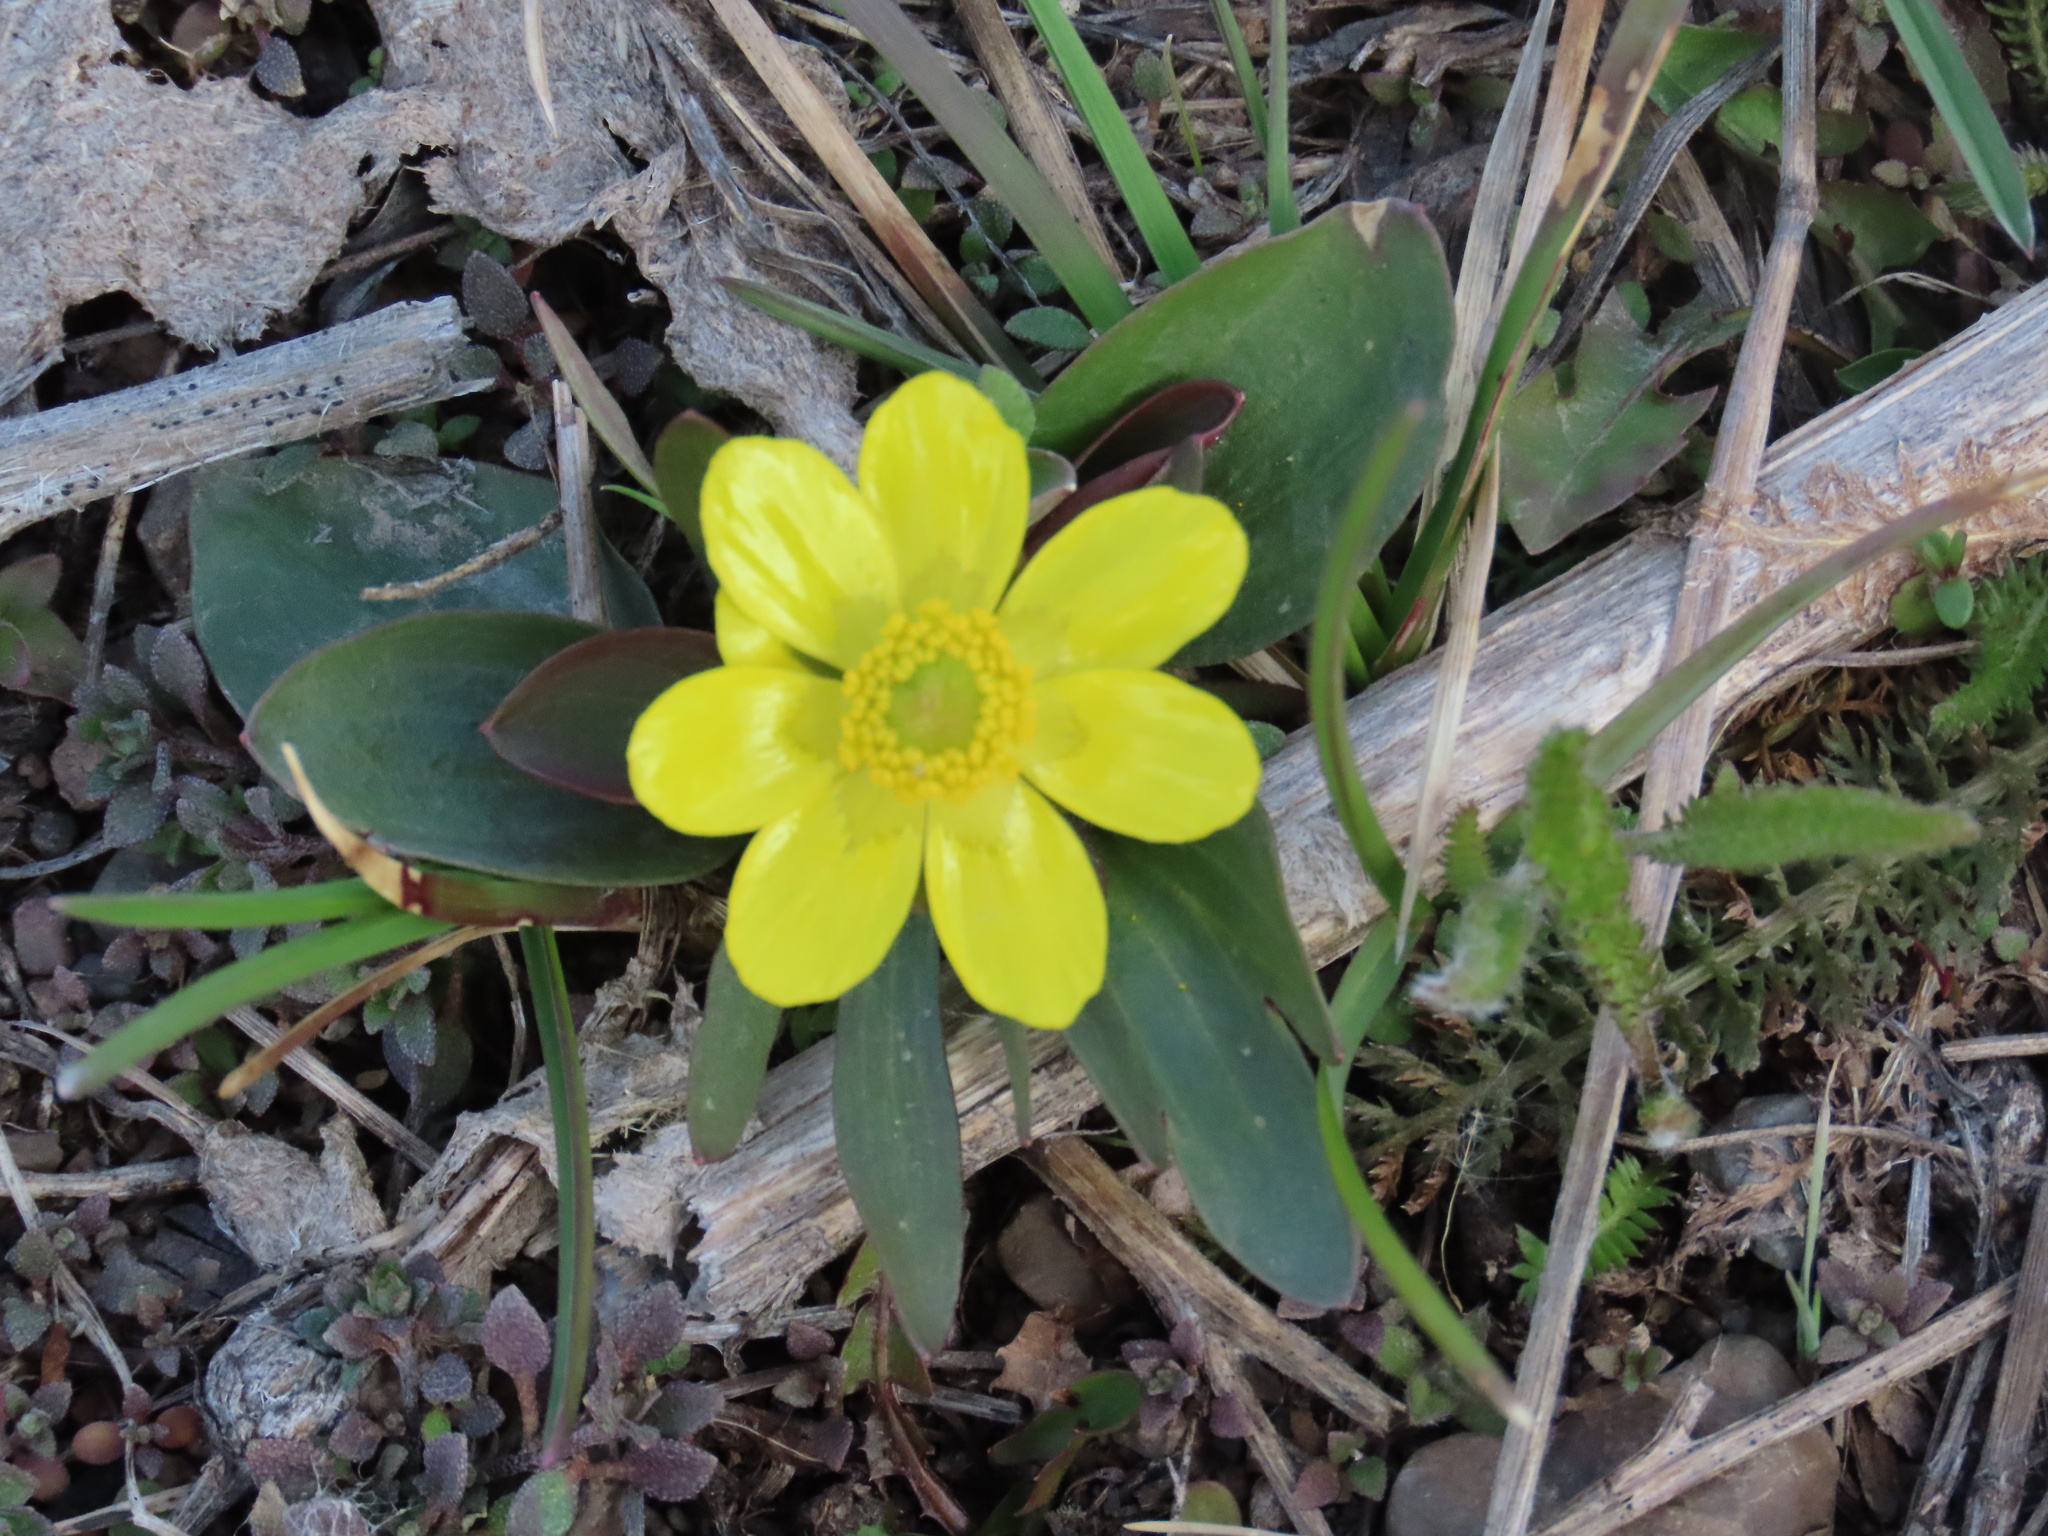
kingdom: Plantae
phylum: Tracheophyta
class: Magnoliopsida
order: Ranunculales
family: Ranunculaceae
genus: Ranunculus
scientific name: Ranunculus glaberrimus
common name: Sagebrush buttercup
